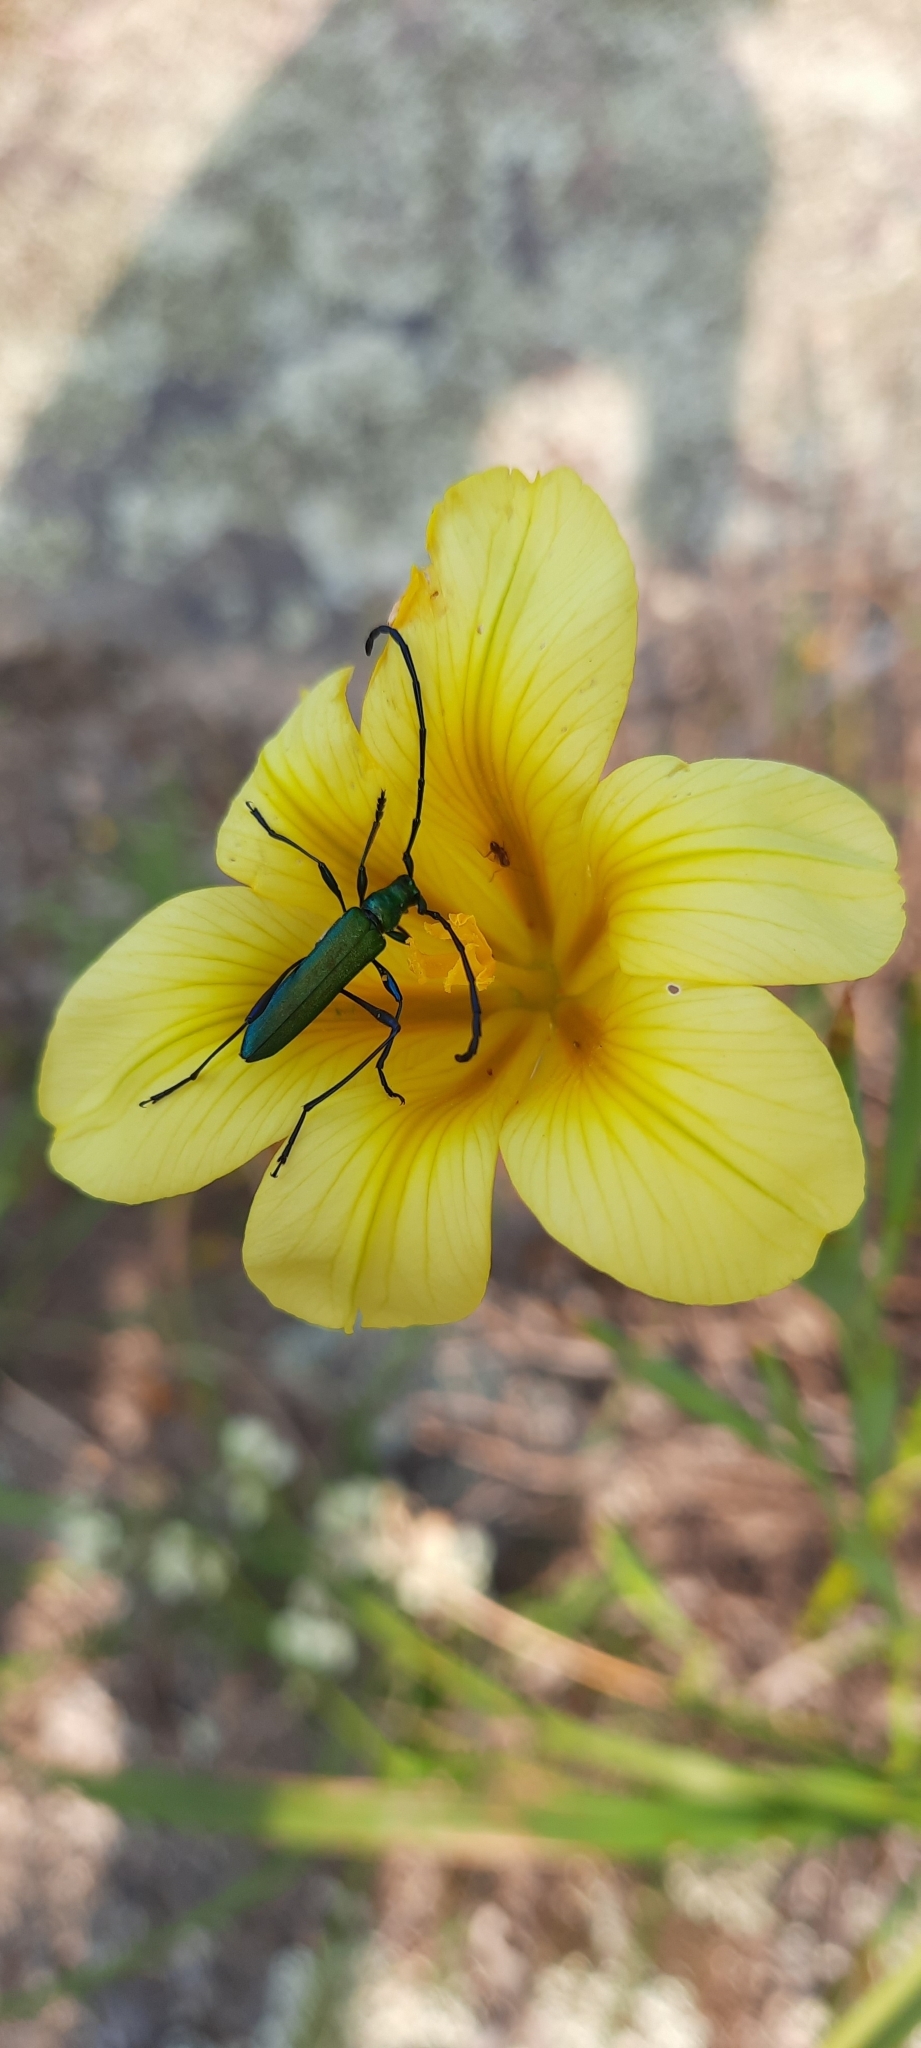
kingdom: Animalia
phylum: Arthropoda
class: Insecta
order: Coleoptera
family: Cerambycidae
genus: Promeces
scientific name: Promeces longipes
